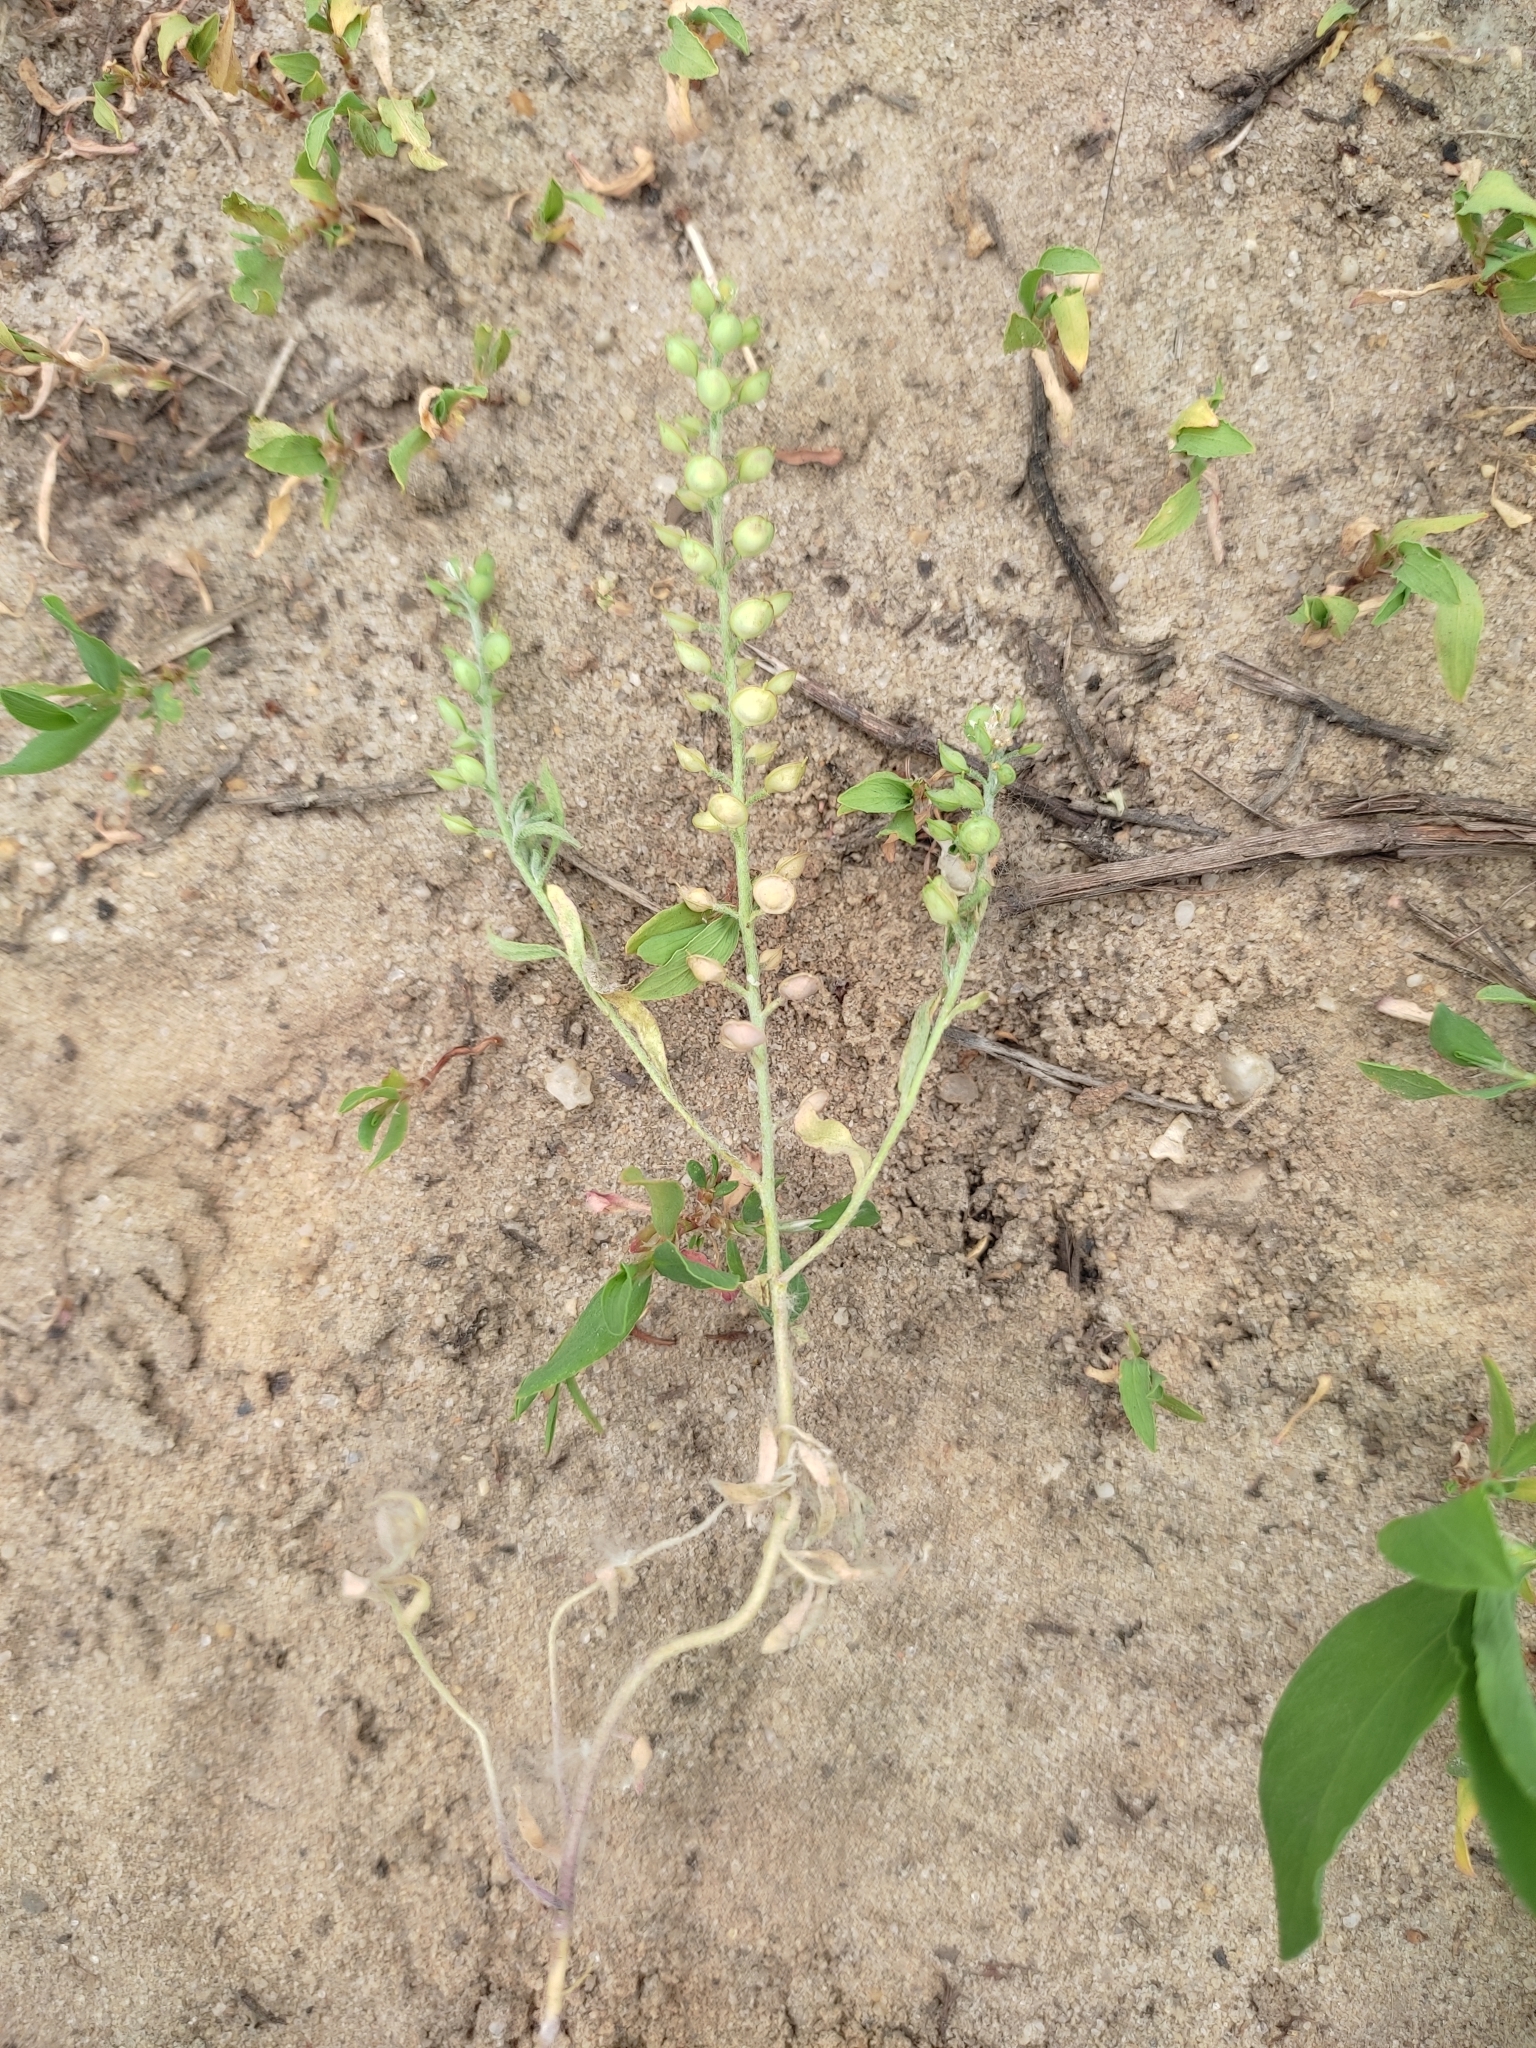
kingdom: Plantae
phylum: Tracheophyta
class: Magnoliopsida
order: Brassicales
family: Brassicaceae
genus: Alyssum
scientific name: Alyssum turkestanicum
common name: Desert alyssum
